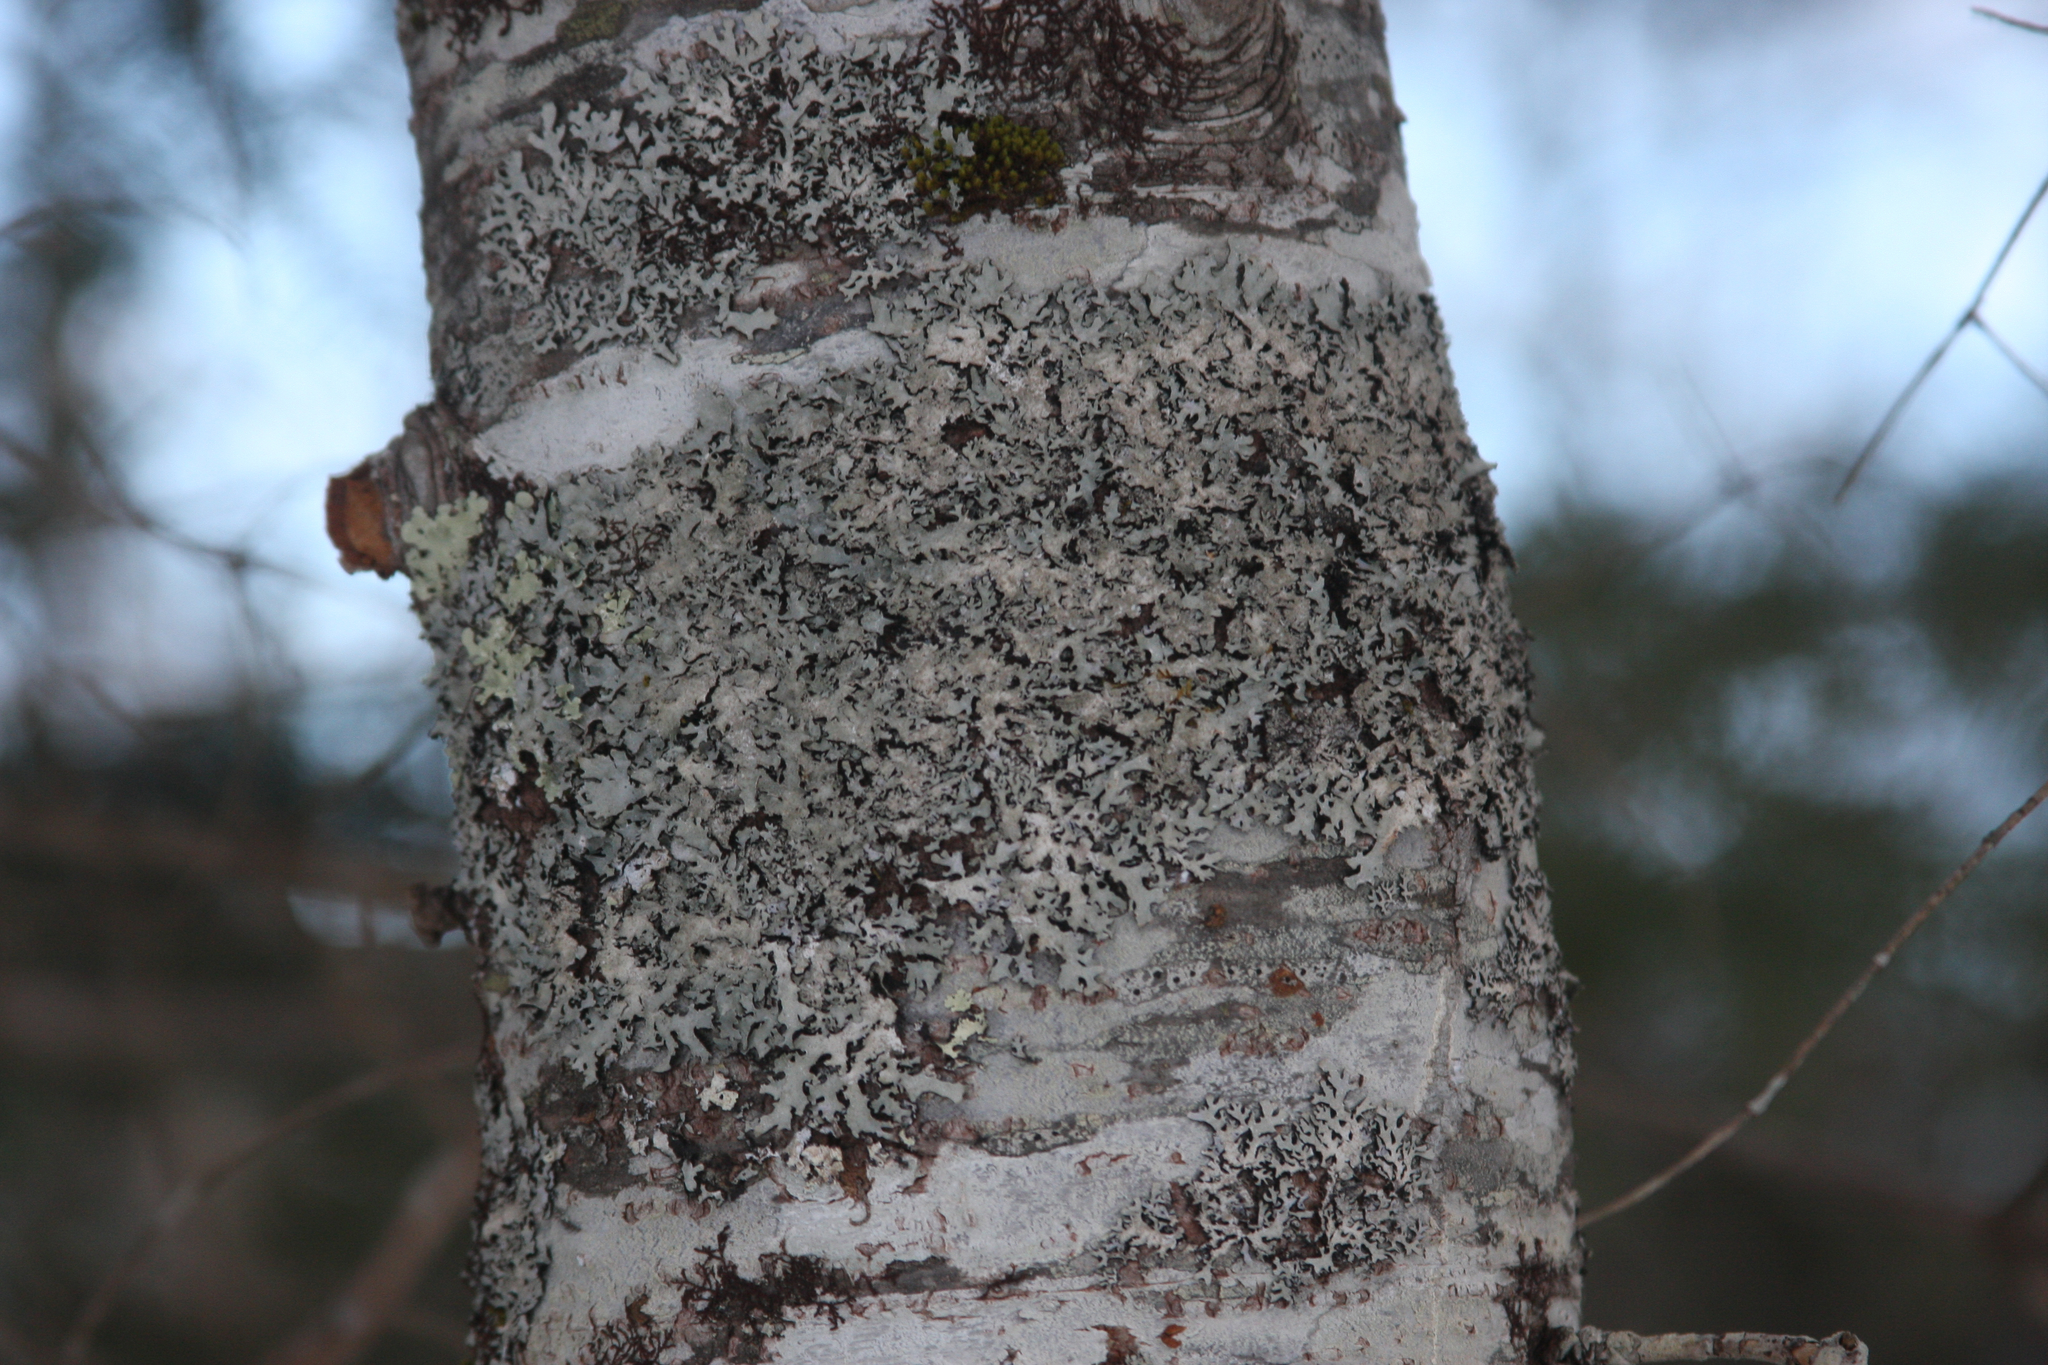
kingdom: Fungi
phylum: Ascomycota
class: Lecanoromycetes
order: Lecanorales
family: Parmeliaceae
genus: Parmelia
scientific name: Parmelia sulcata
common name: Netted shield lichen
